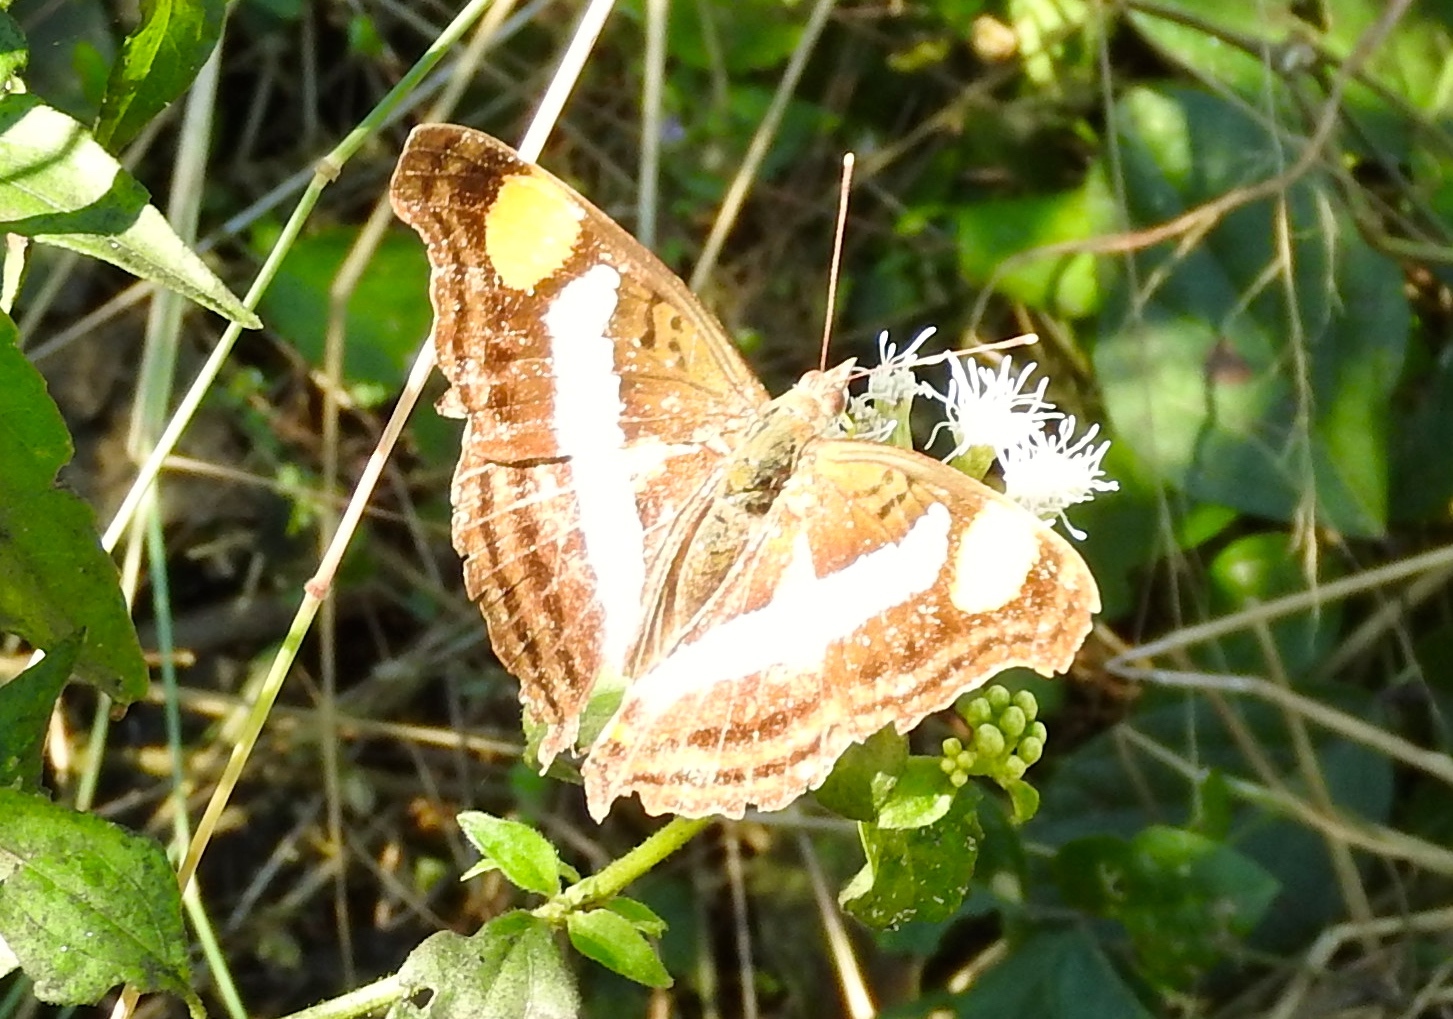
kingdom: Animalia
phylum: Arthropoda
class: Insecta
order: Lepidoptera
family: Nymphalidae
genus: Doxocopa
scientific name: Doxocopa laure
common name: Silver emperor
